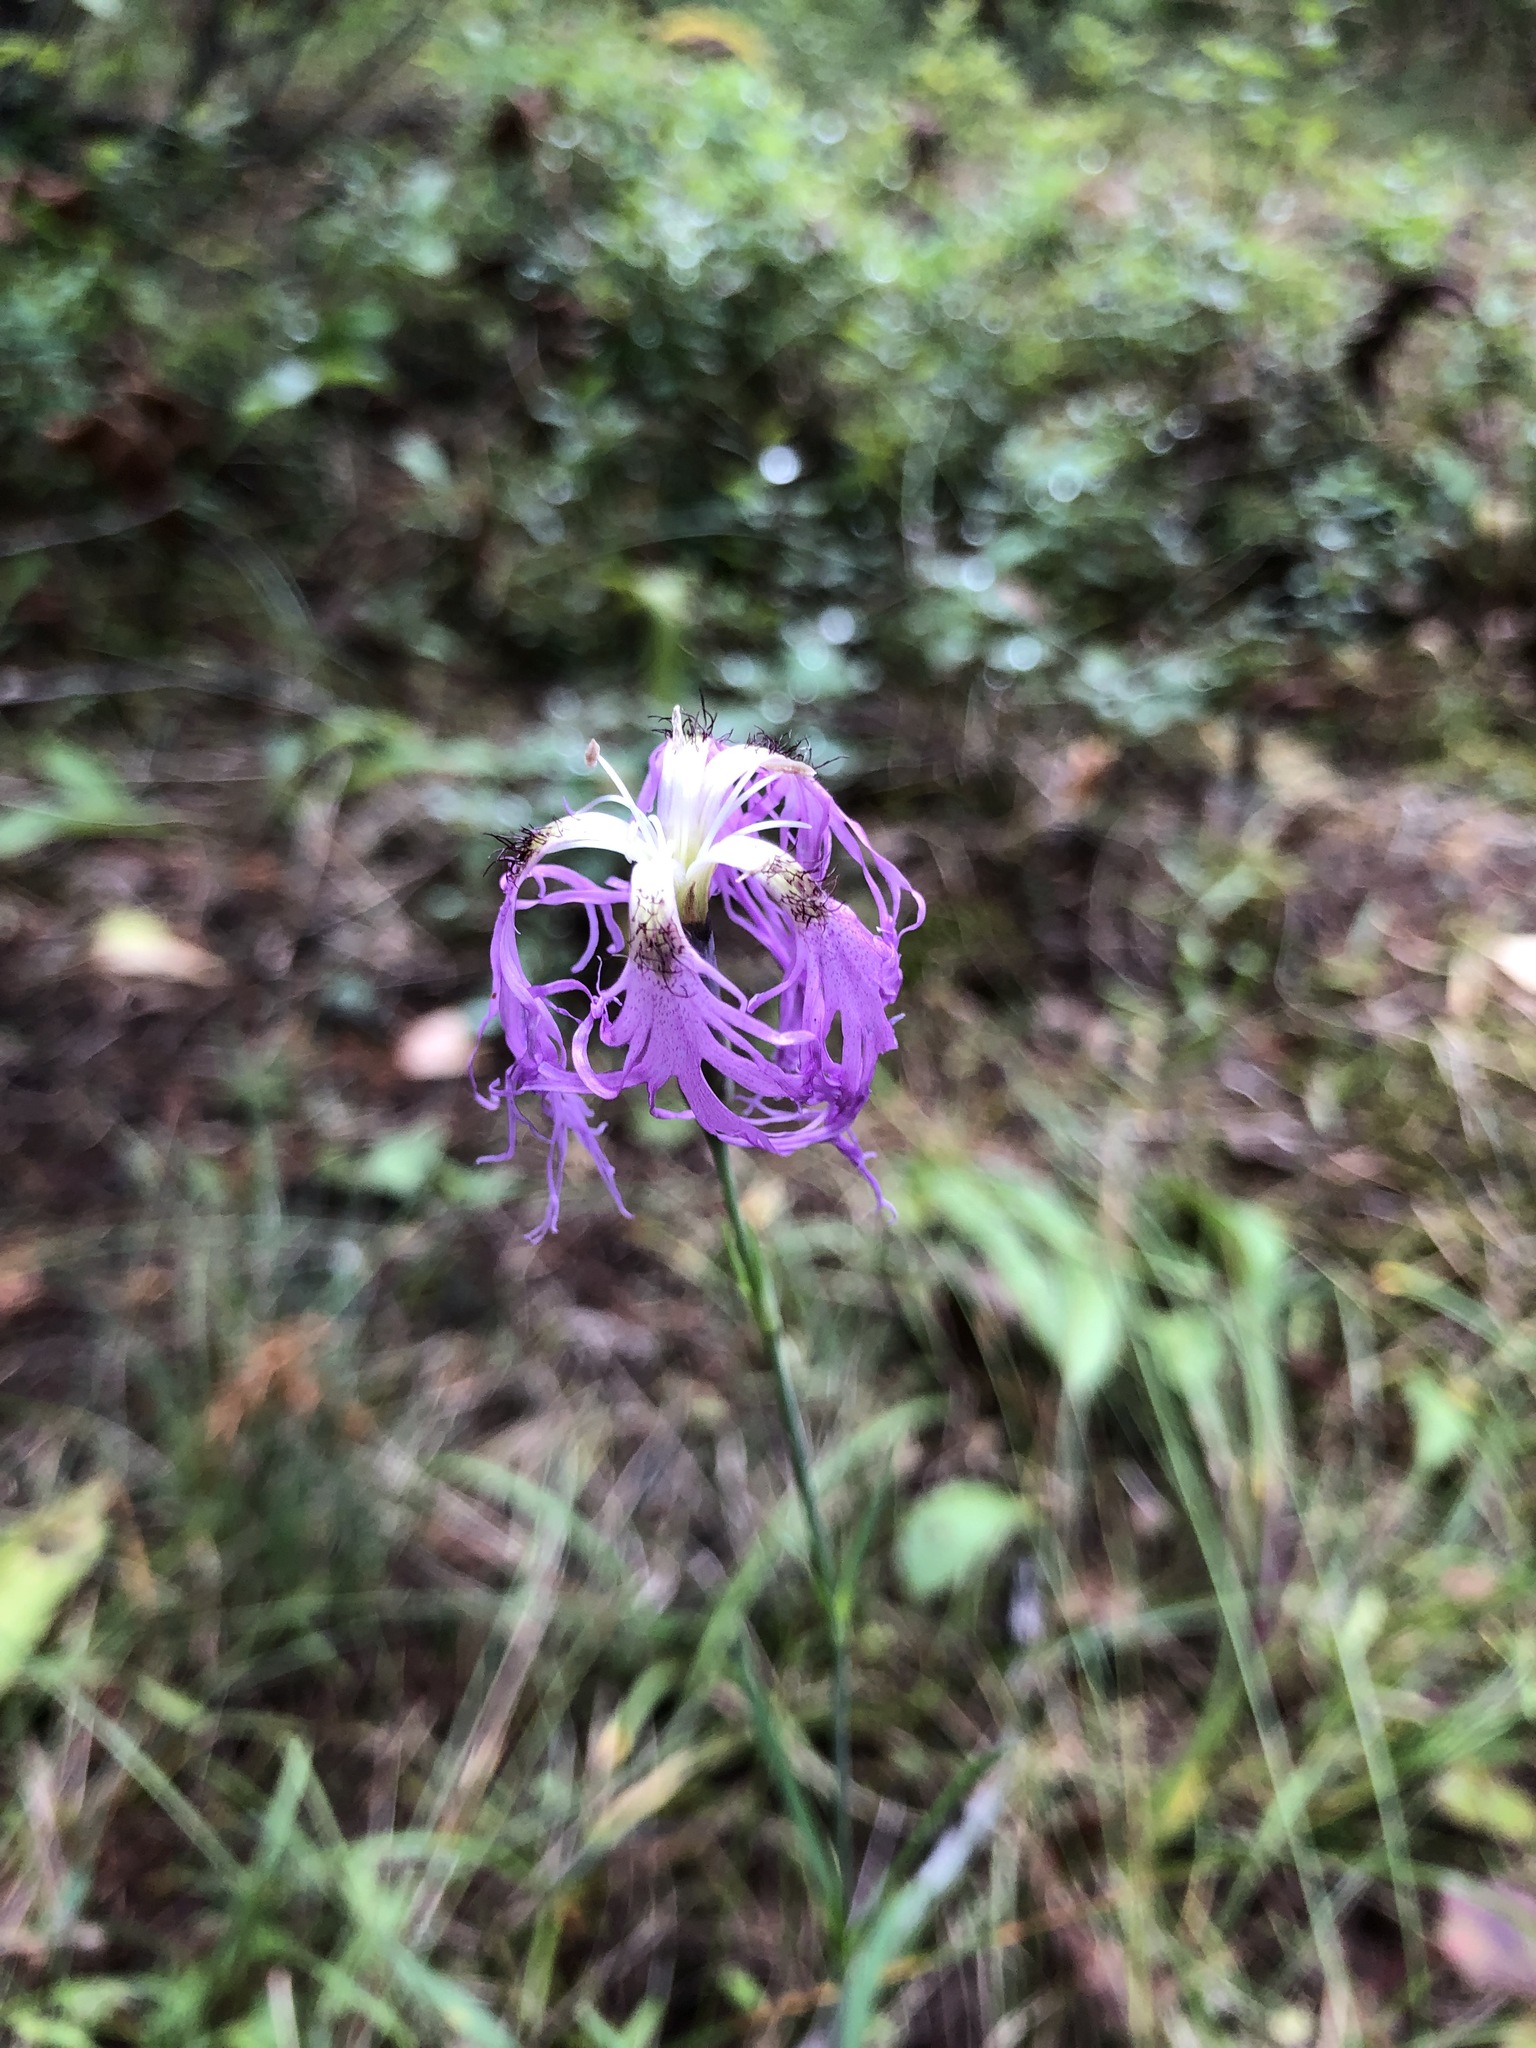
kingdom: Plantae
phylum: Tracheophyta
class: Magnoliopsida
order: Caryophyllales
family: Caryophyllaceae
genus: Dianthus
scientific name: Dianthus superbus
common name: Fringed pink
